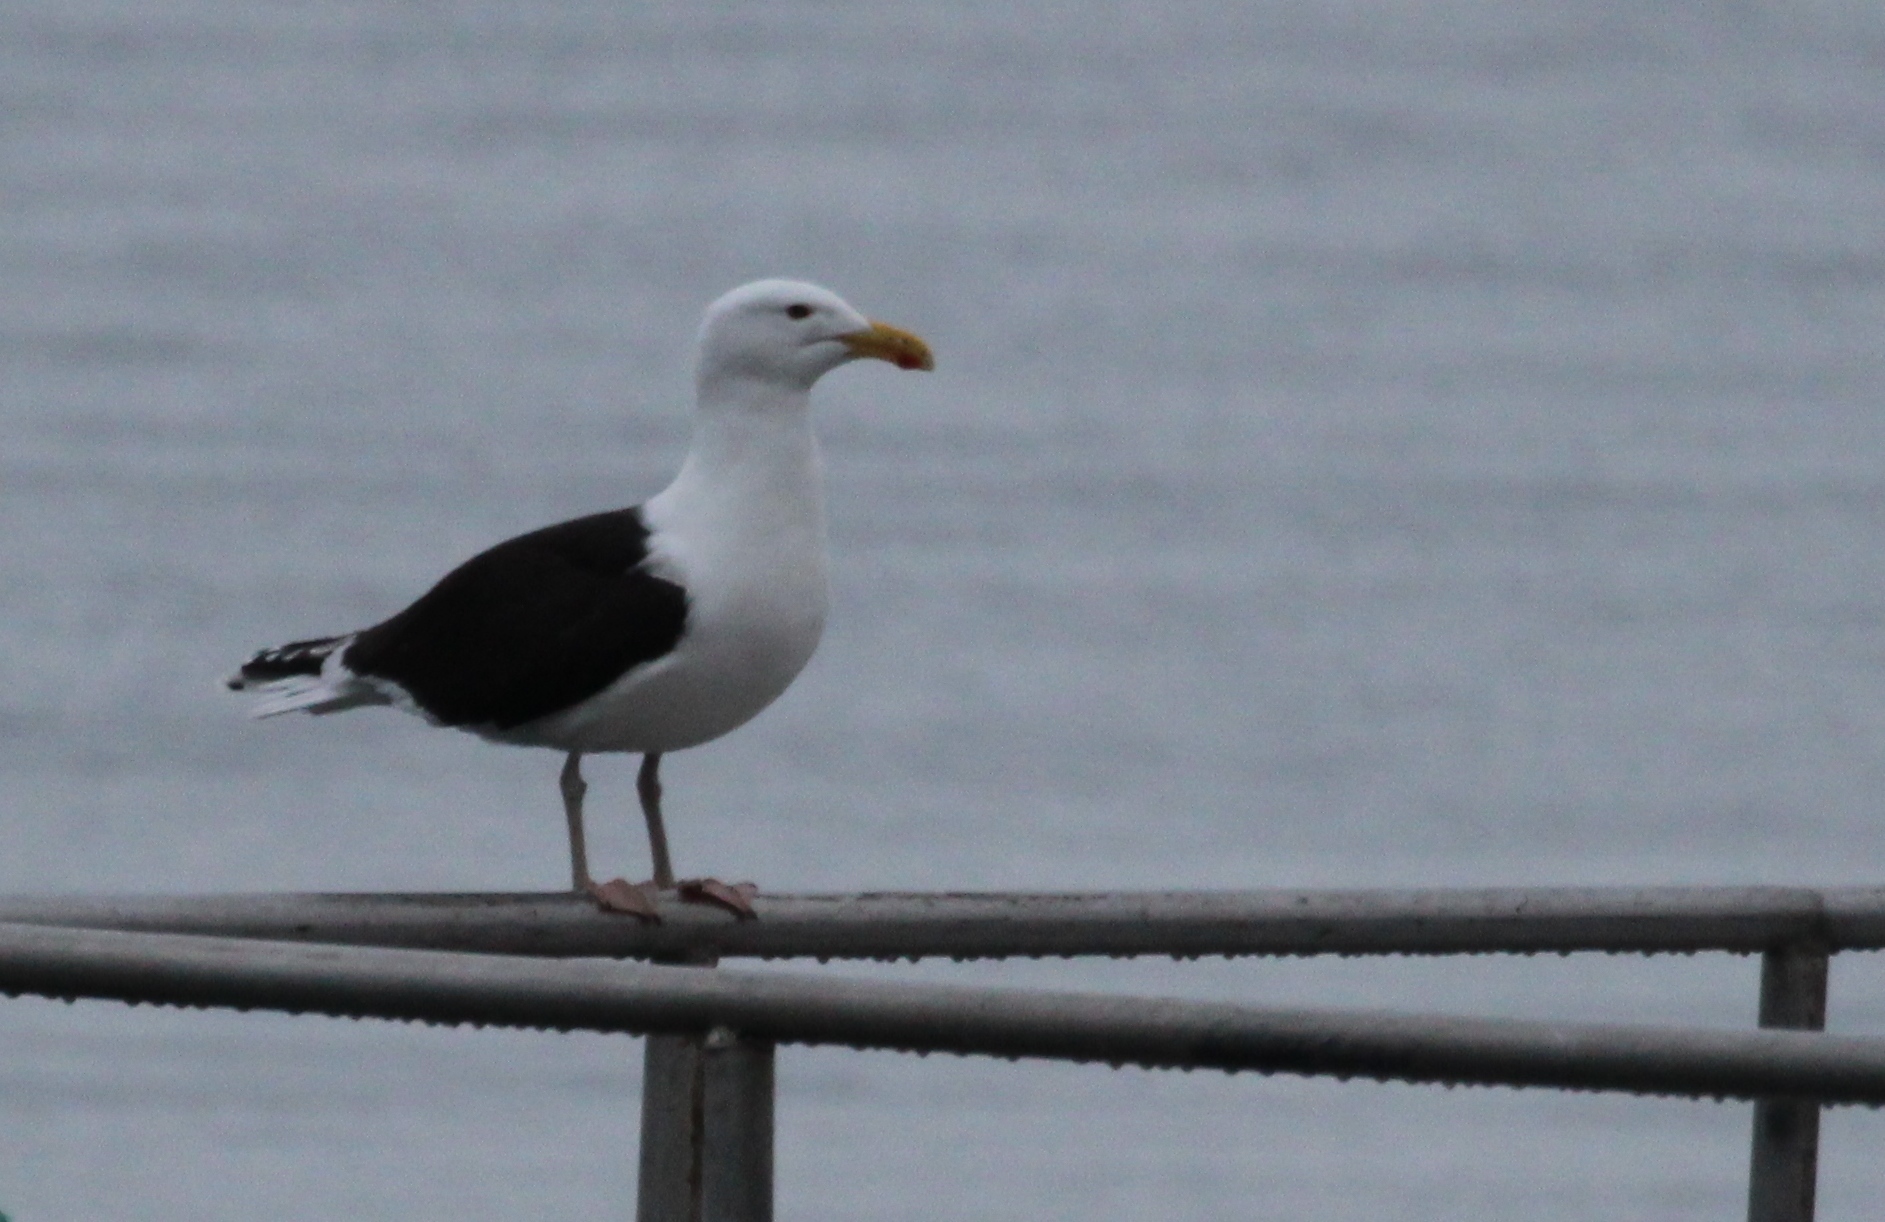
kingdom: Animalia
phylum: Chordata
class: Aves
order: Charadriiformes
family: Laridae
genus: Larus
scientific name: Larus marinus
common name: Great black-backed gull
